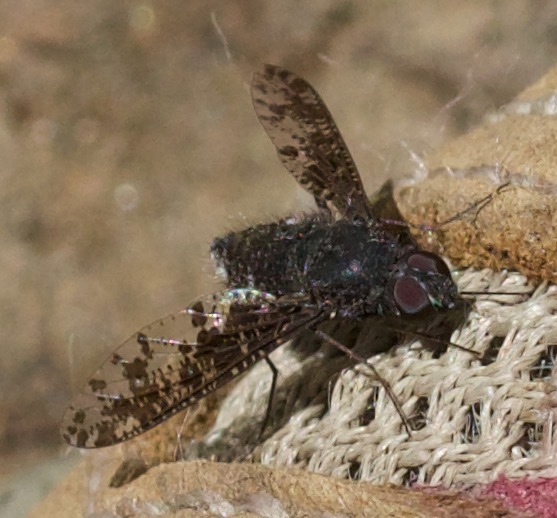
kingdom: Animalia
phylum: Arthropoda
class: Insecta
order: Diptera
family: Bombyliidae
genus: Anthrax
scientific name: Anthrax irroratus
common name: Spotted bee fly
